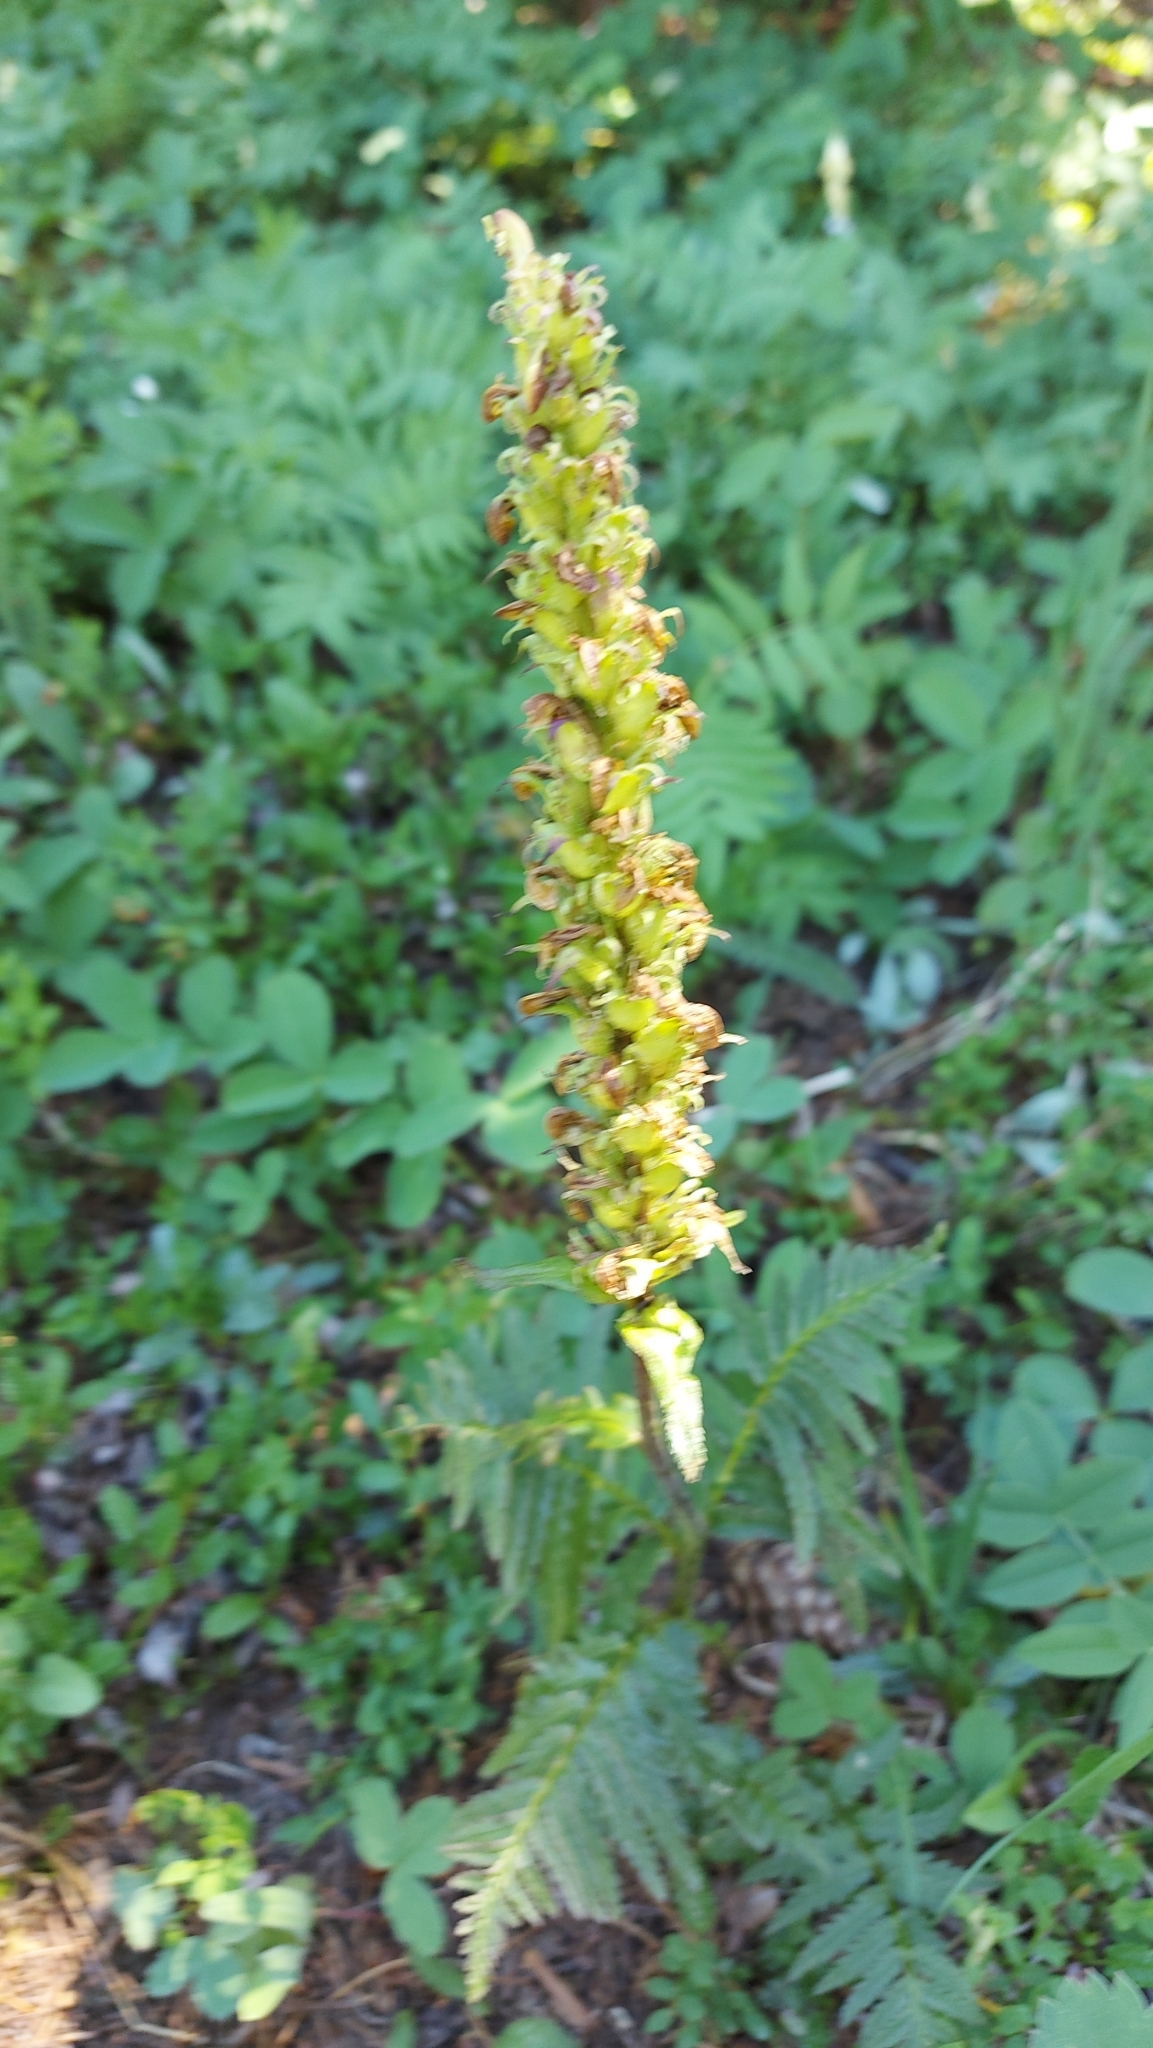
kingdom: Plantae
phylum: Tracheophyta
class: Magnoliopsida
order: Lamiales
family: Orobanchaceae
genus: Pedicularis
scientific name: Pedicularis bracteosa
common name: Bracted lousewort
